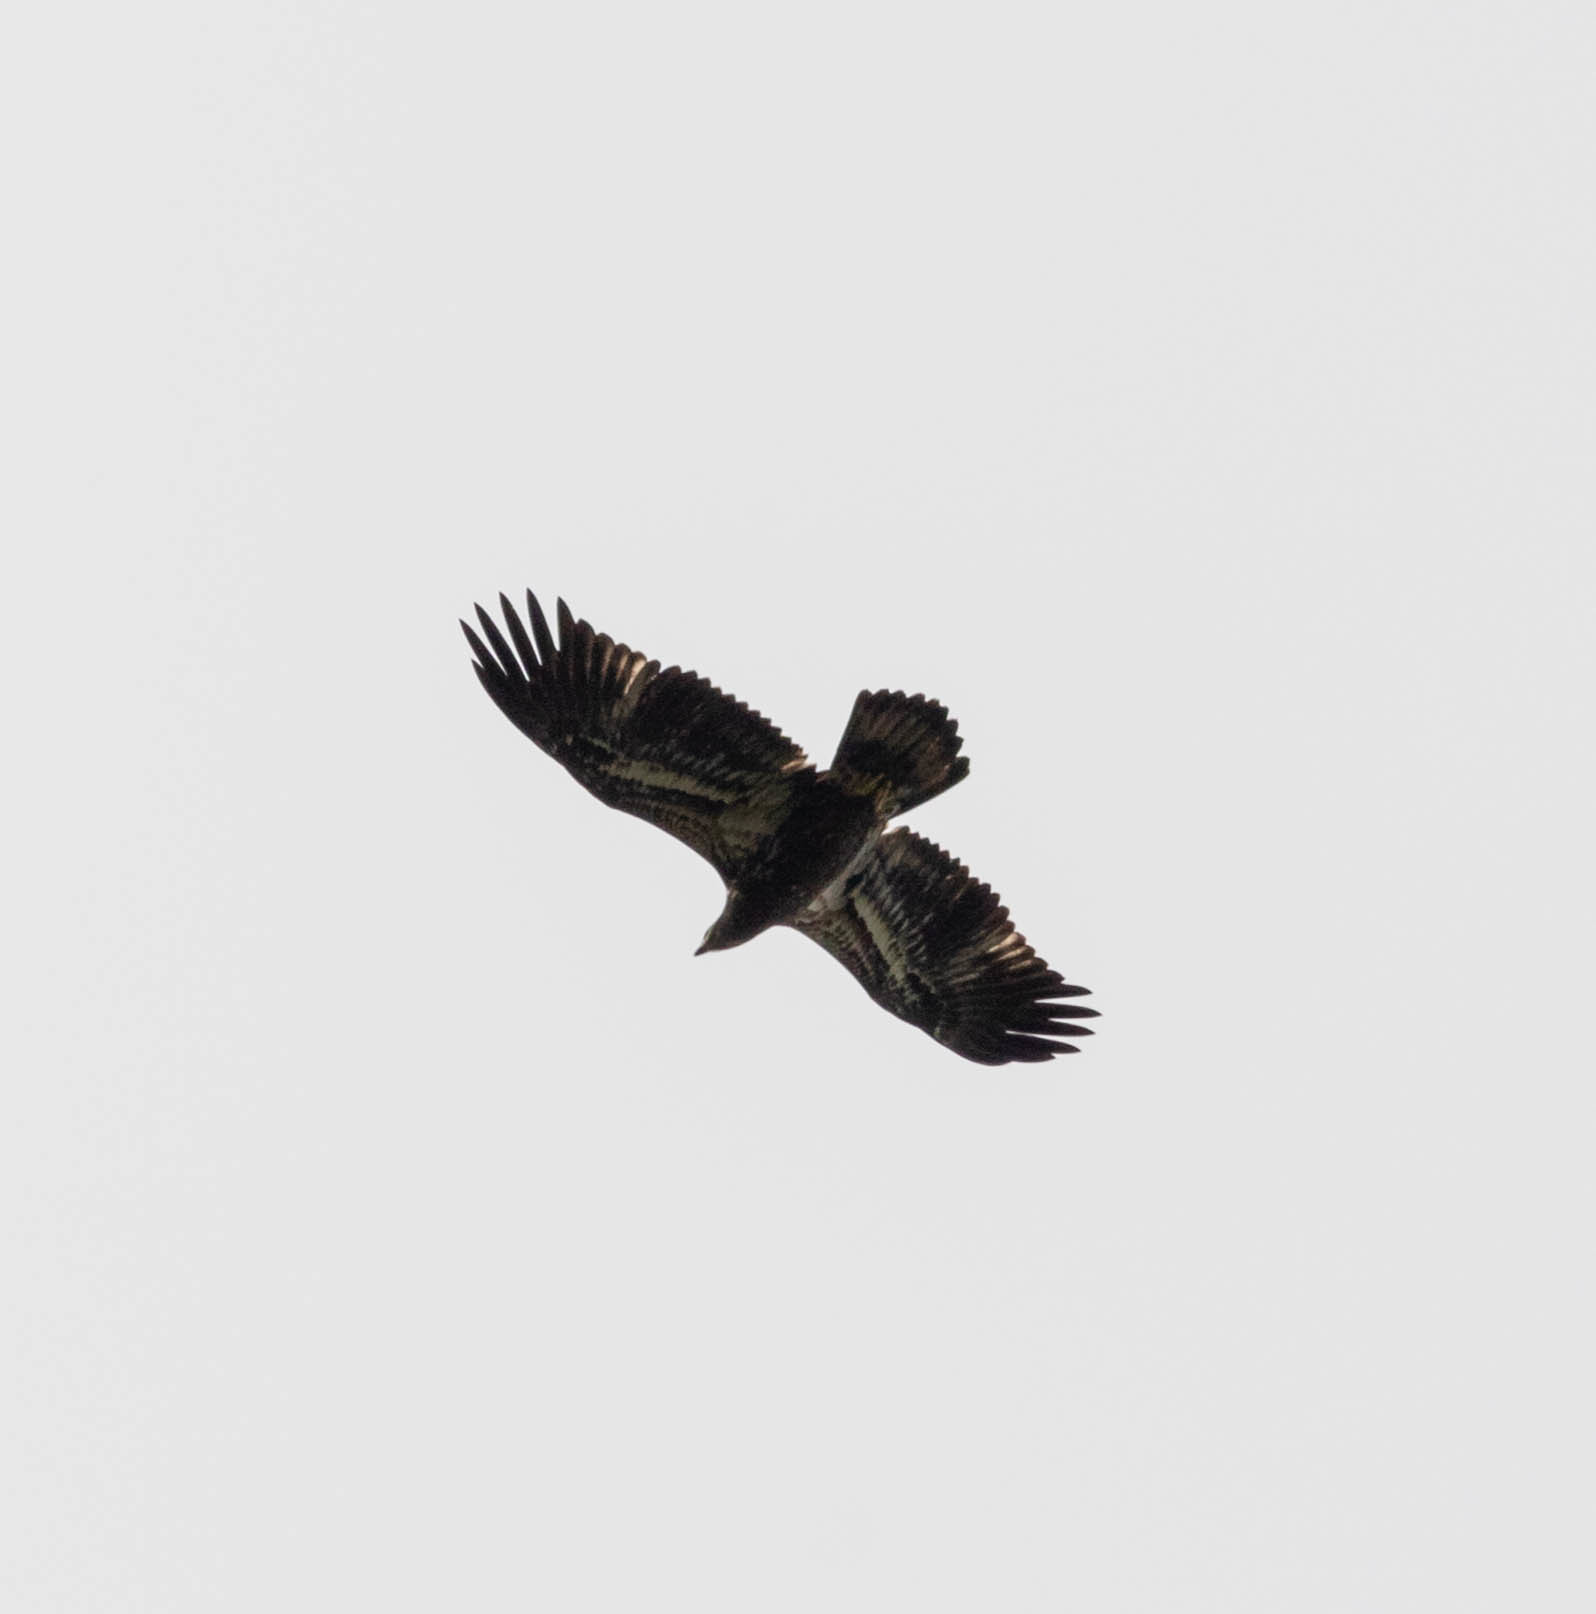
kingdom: Animalia
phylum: Chordata
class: Aves
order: Accipitriformes
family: Accipitridae
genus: Haliaeetus
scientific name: Haliaeetus leucocephalus
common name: Bald eagle
